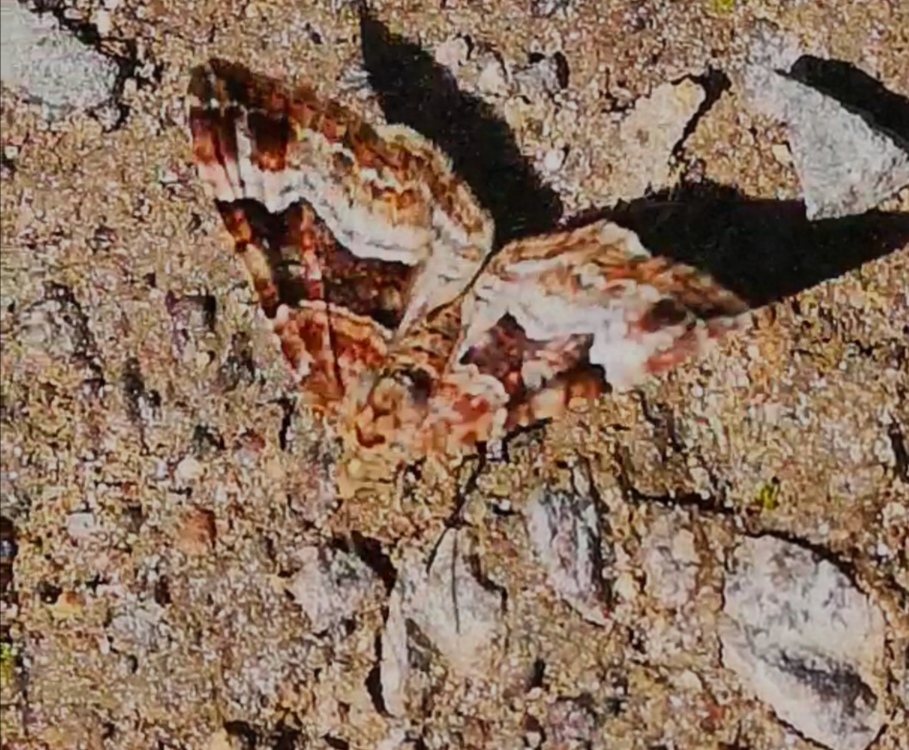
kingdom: Animalia
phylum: Arthropoda
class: Insecta
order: Lepidoptera
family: Geometridae
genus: Xanthorhoe
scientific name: Xanthorhoe biriviata
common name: Balsam carpet
